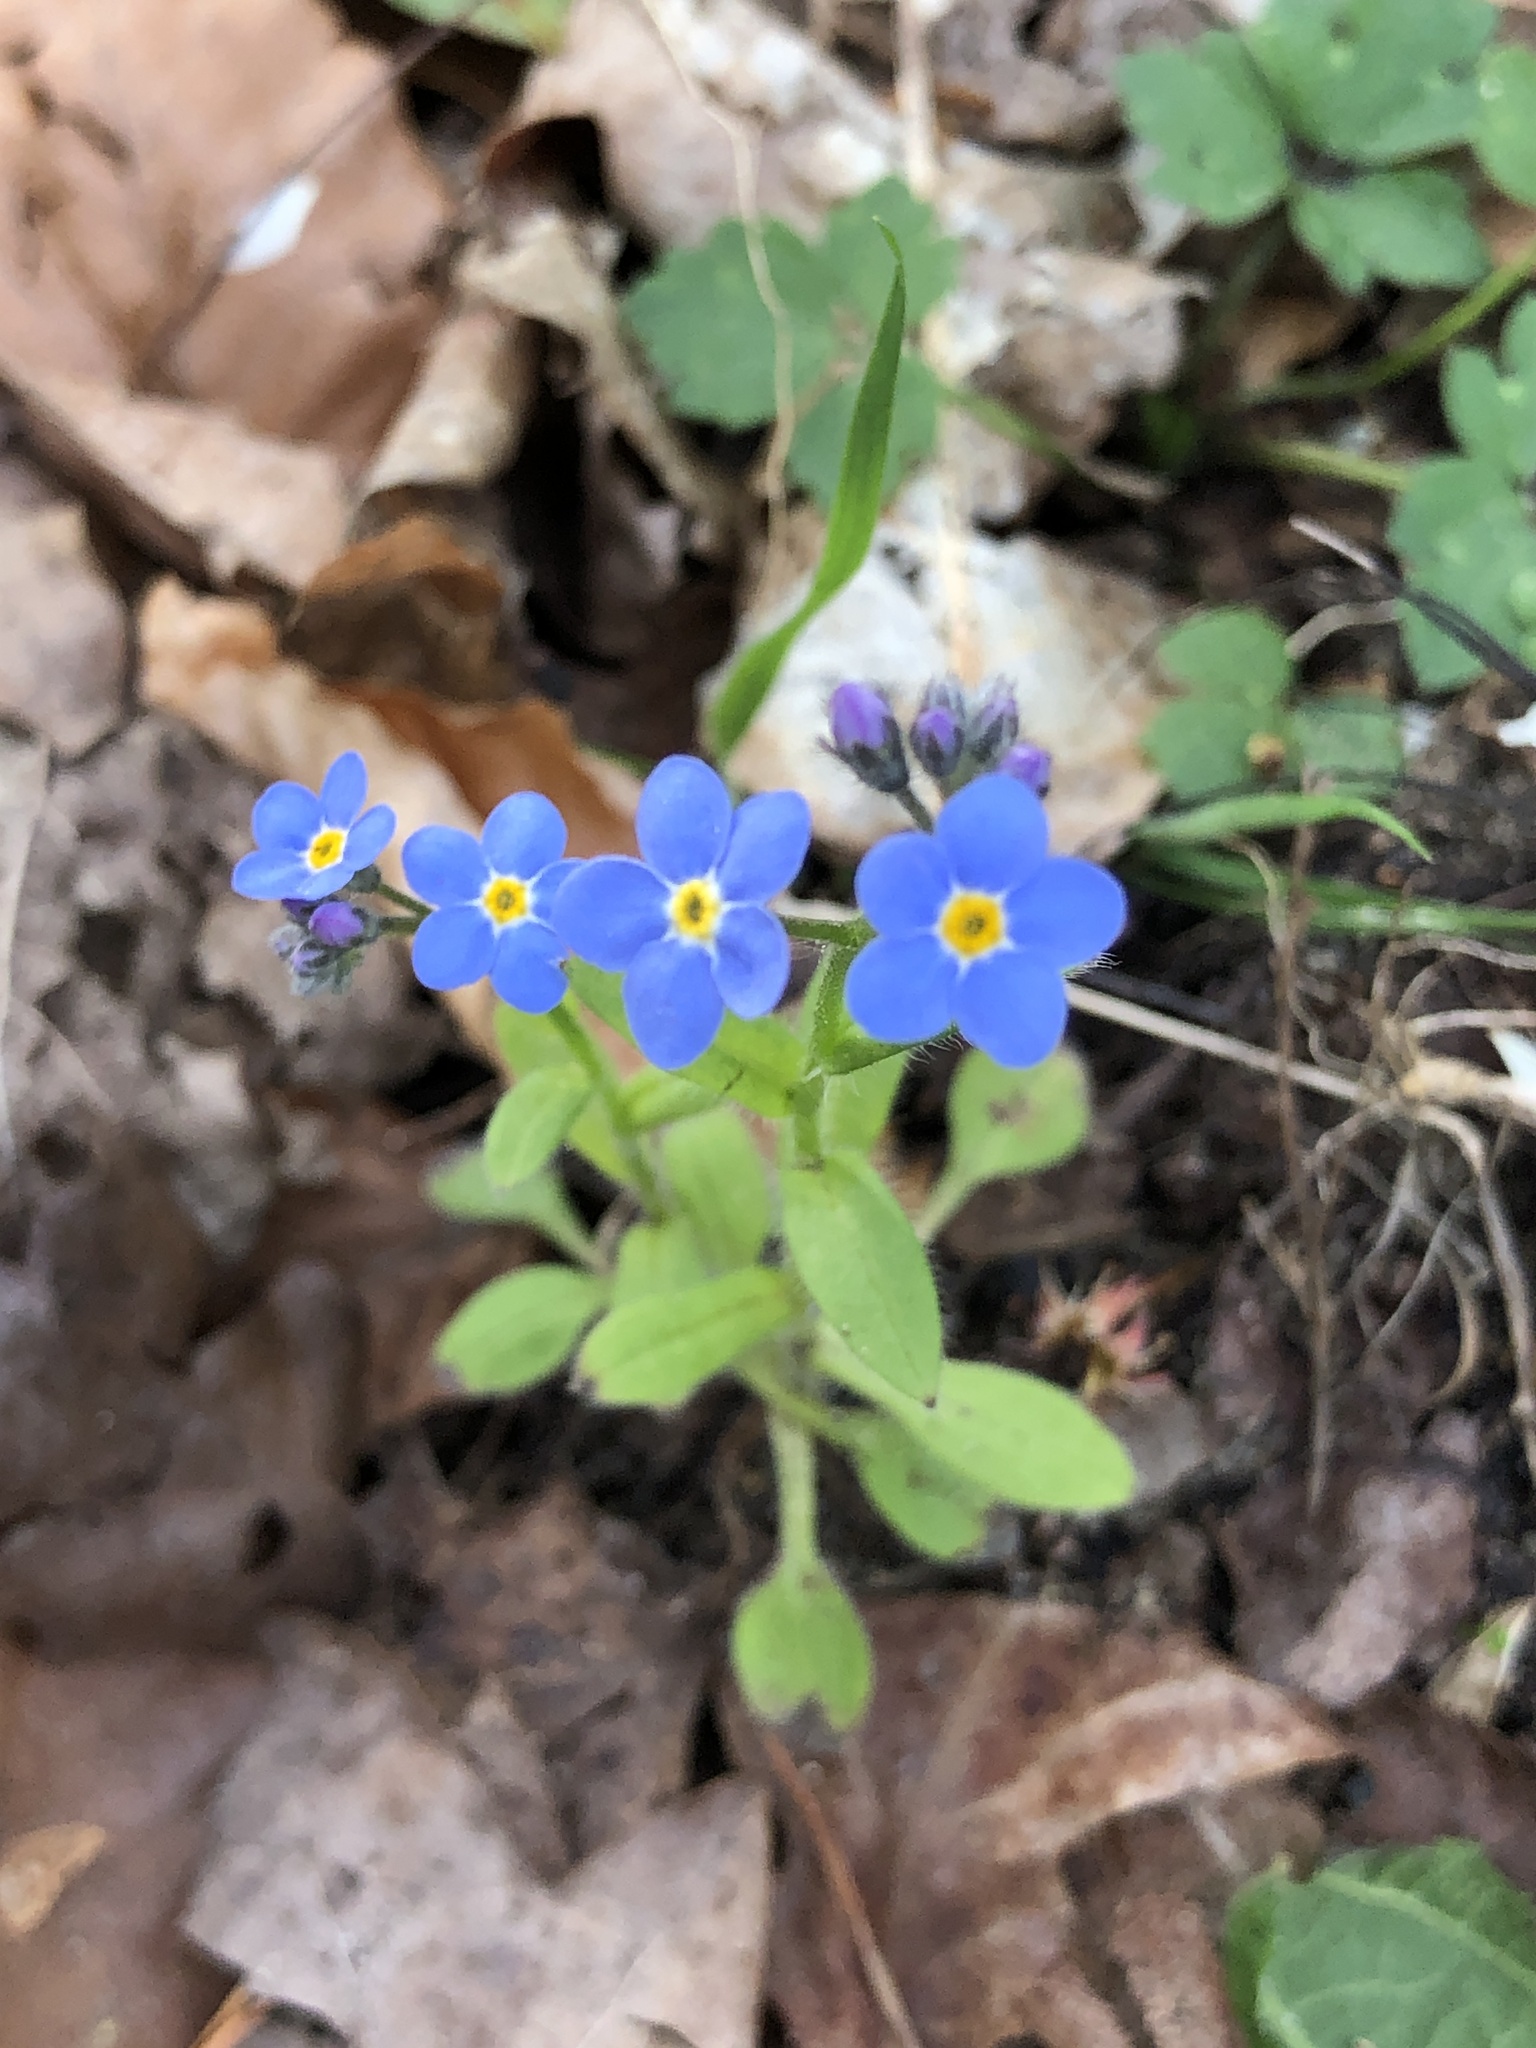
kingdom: Plantae
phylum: Tracheophyta
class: Magnoliopsida
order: Boraginales
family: Boraginaceae
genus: Myosotis
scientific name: Myosotis sylvatica
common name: Wood forget-me-not
